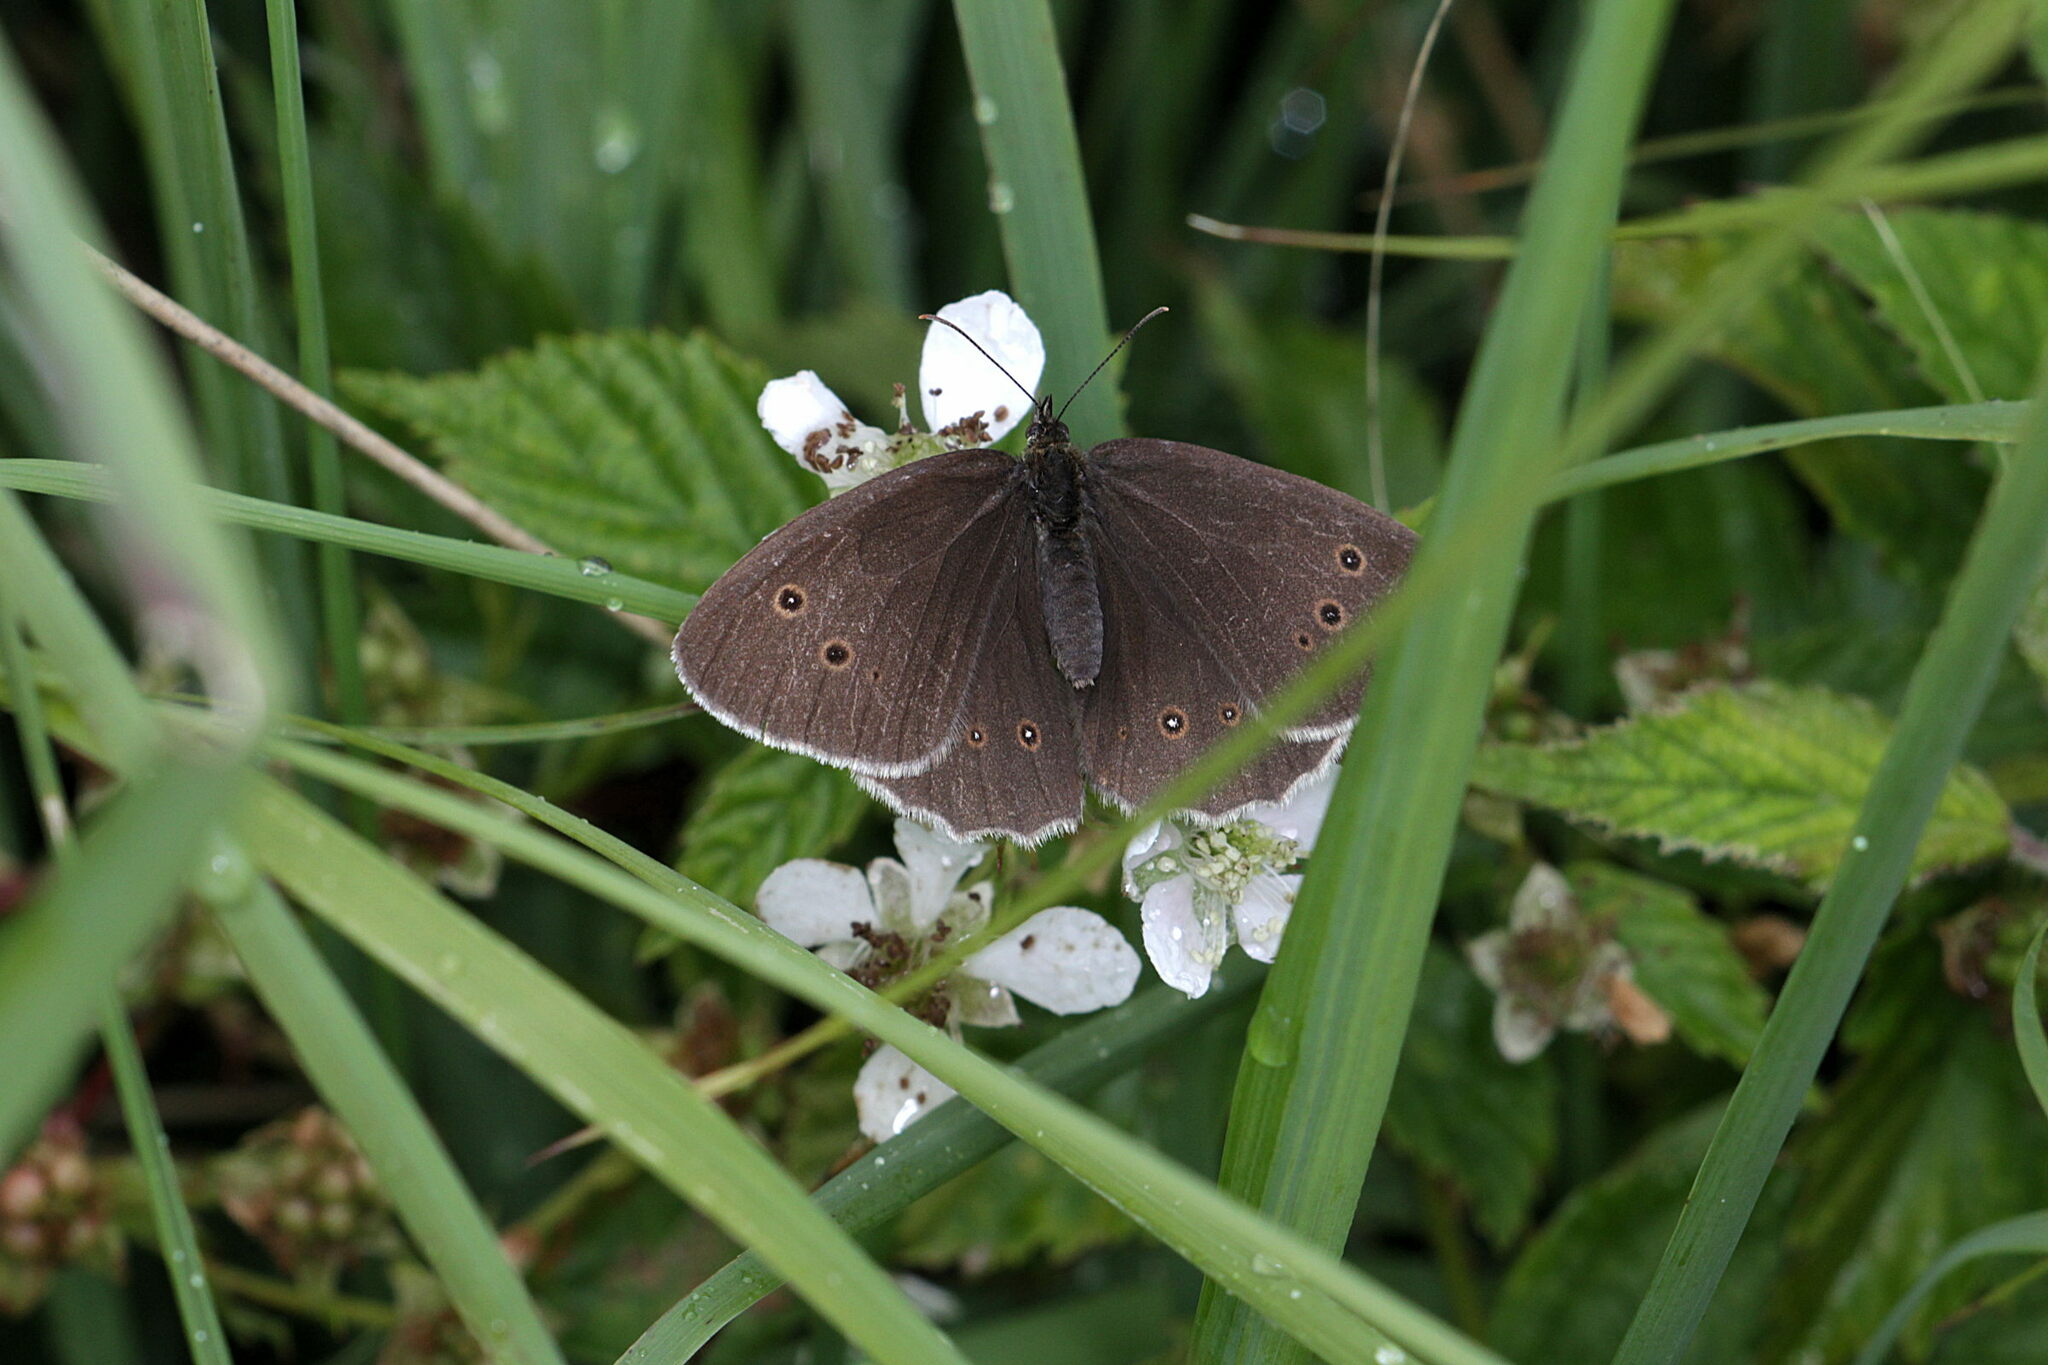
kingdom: Animalia
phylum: Arthropoda
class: Insecta
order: Lepidoptera
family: Nymphalidae
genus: Aphantopus
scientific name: Aphantopus hyperantus
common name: Ringlet
